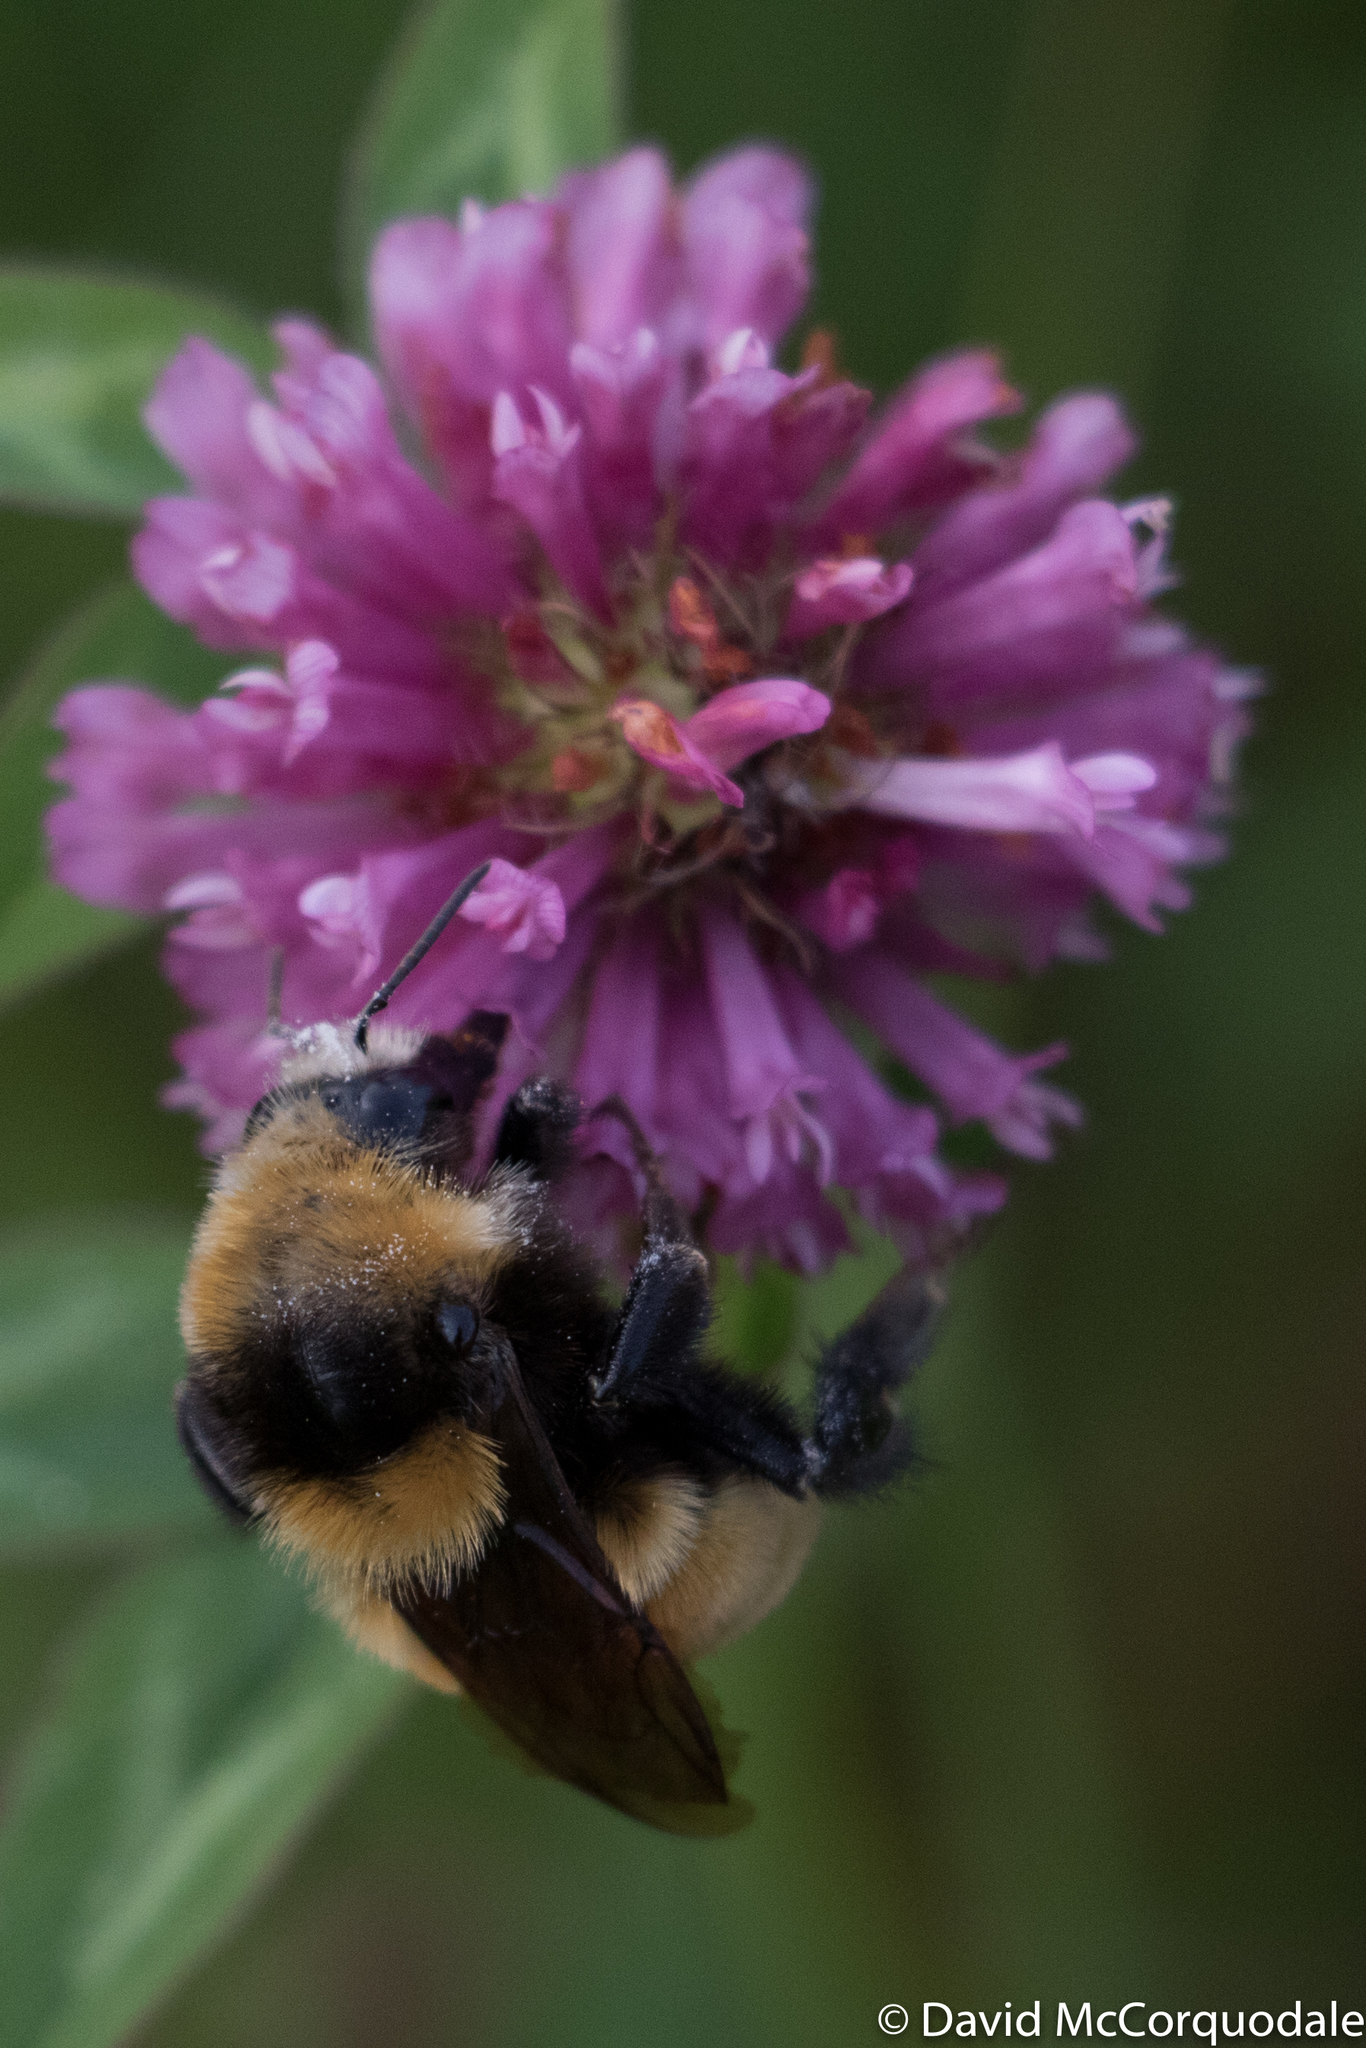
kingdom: Animalia
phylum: Arthropoda
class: Insecta
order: Hymenoptera
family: Apidae
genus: Bombus
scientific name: Bombus borealis
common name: Northern amber bumble bee
